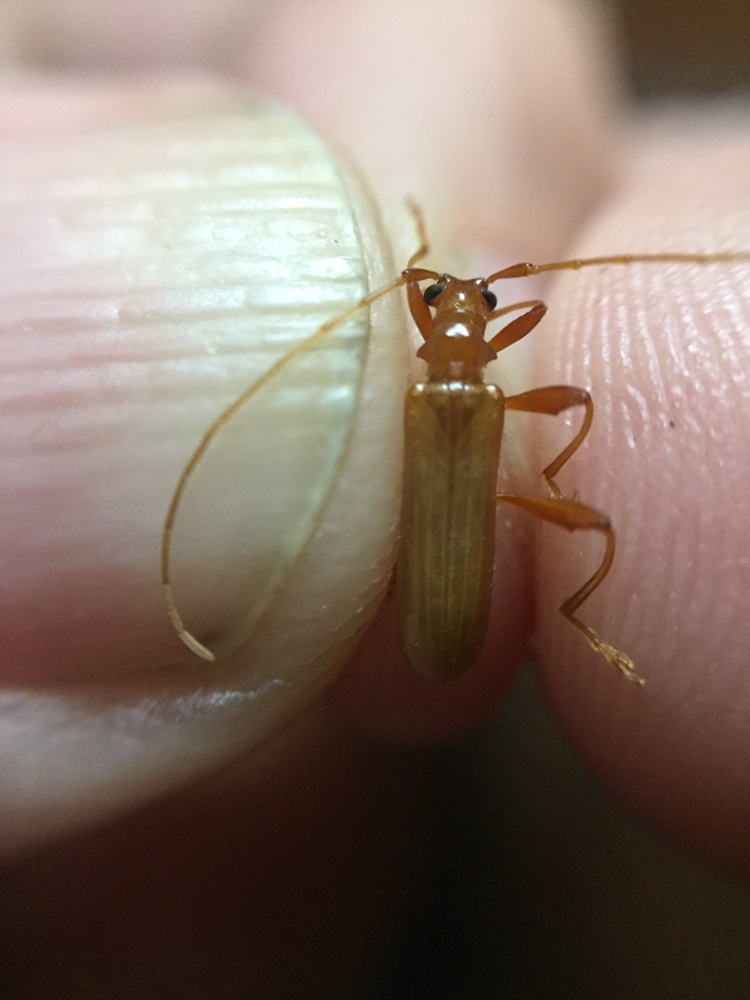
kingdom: Animalia
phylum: Arthropoda
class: Insecta
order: Coleoptera
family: Cerambycidae
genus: Votum
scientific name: Votum munda
